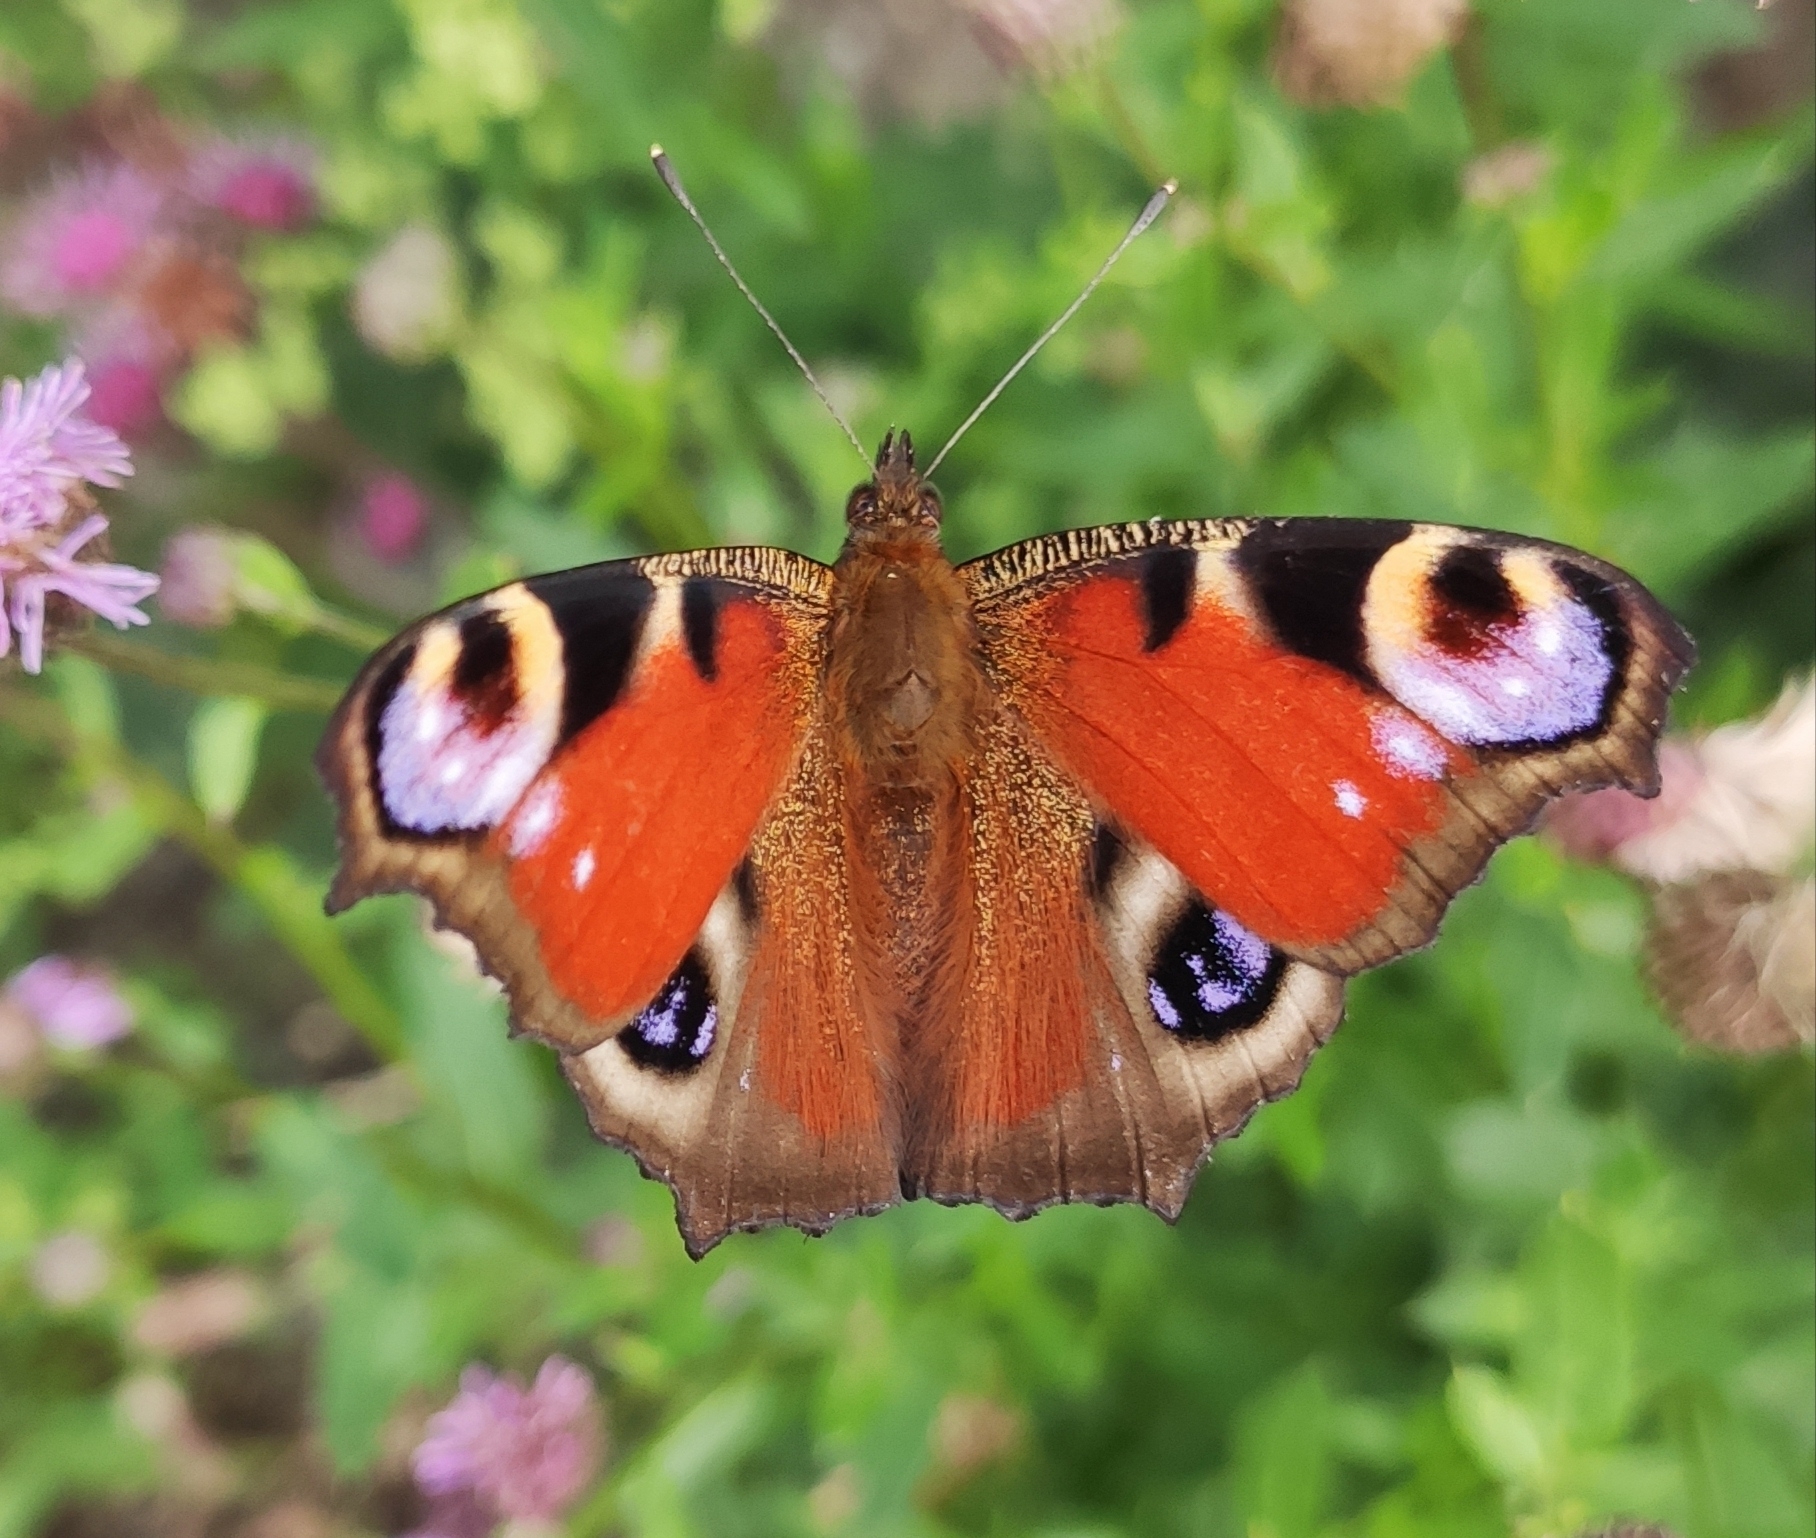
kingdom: Animalia
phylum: Arthropoda
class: Insecta
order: Lepidoptera
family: Nymphalidae
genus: Aglais
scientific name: Aglais io
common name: Peacock
